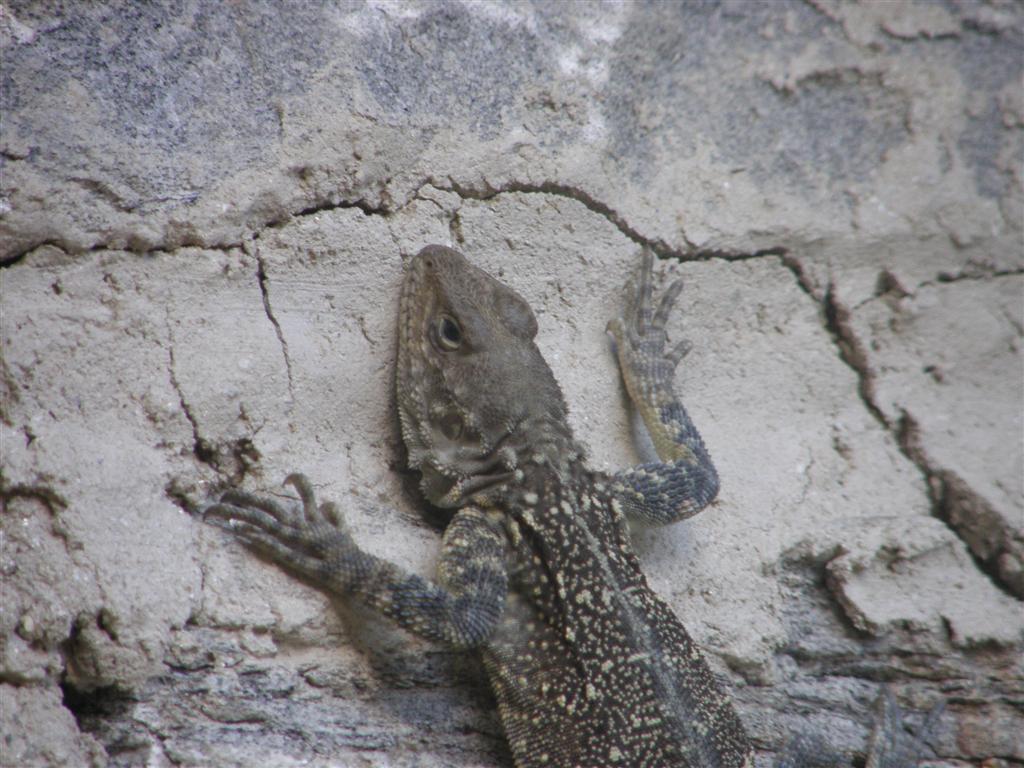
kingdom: Animalia
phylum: Chordata
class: Squamata
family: Agamidae
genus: Laudakia
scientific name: Laudakia tuberculata
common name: Kashmir rock agama
